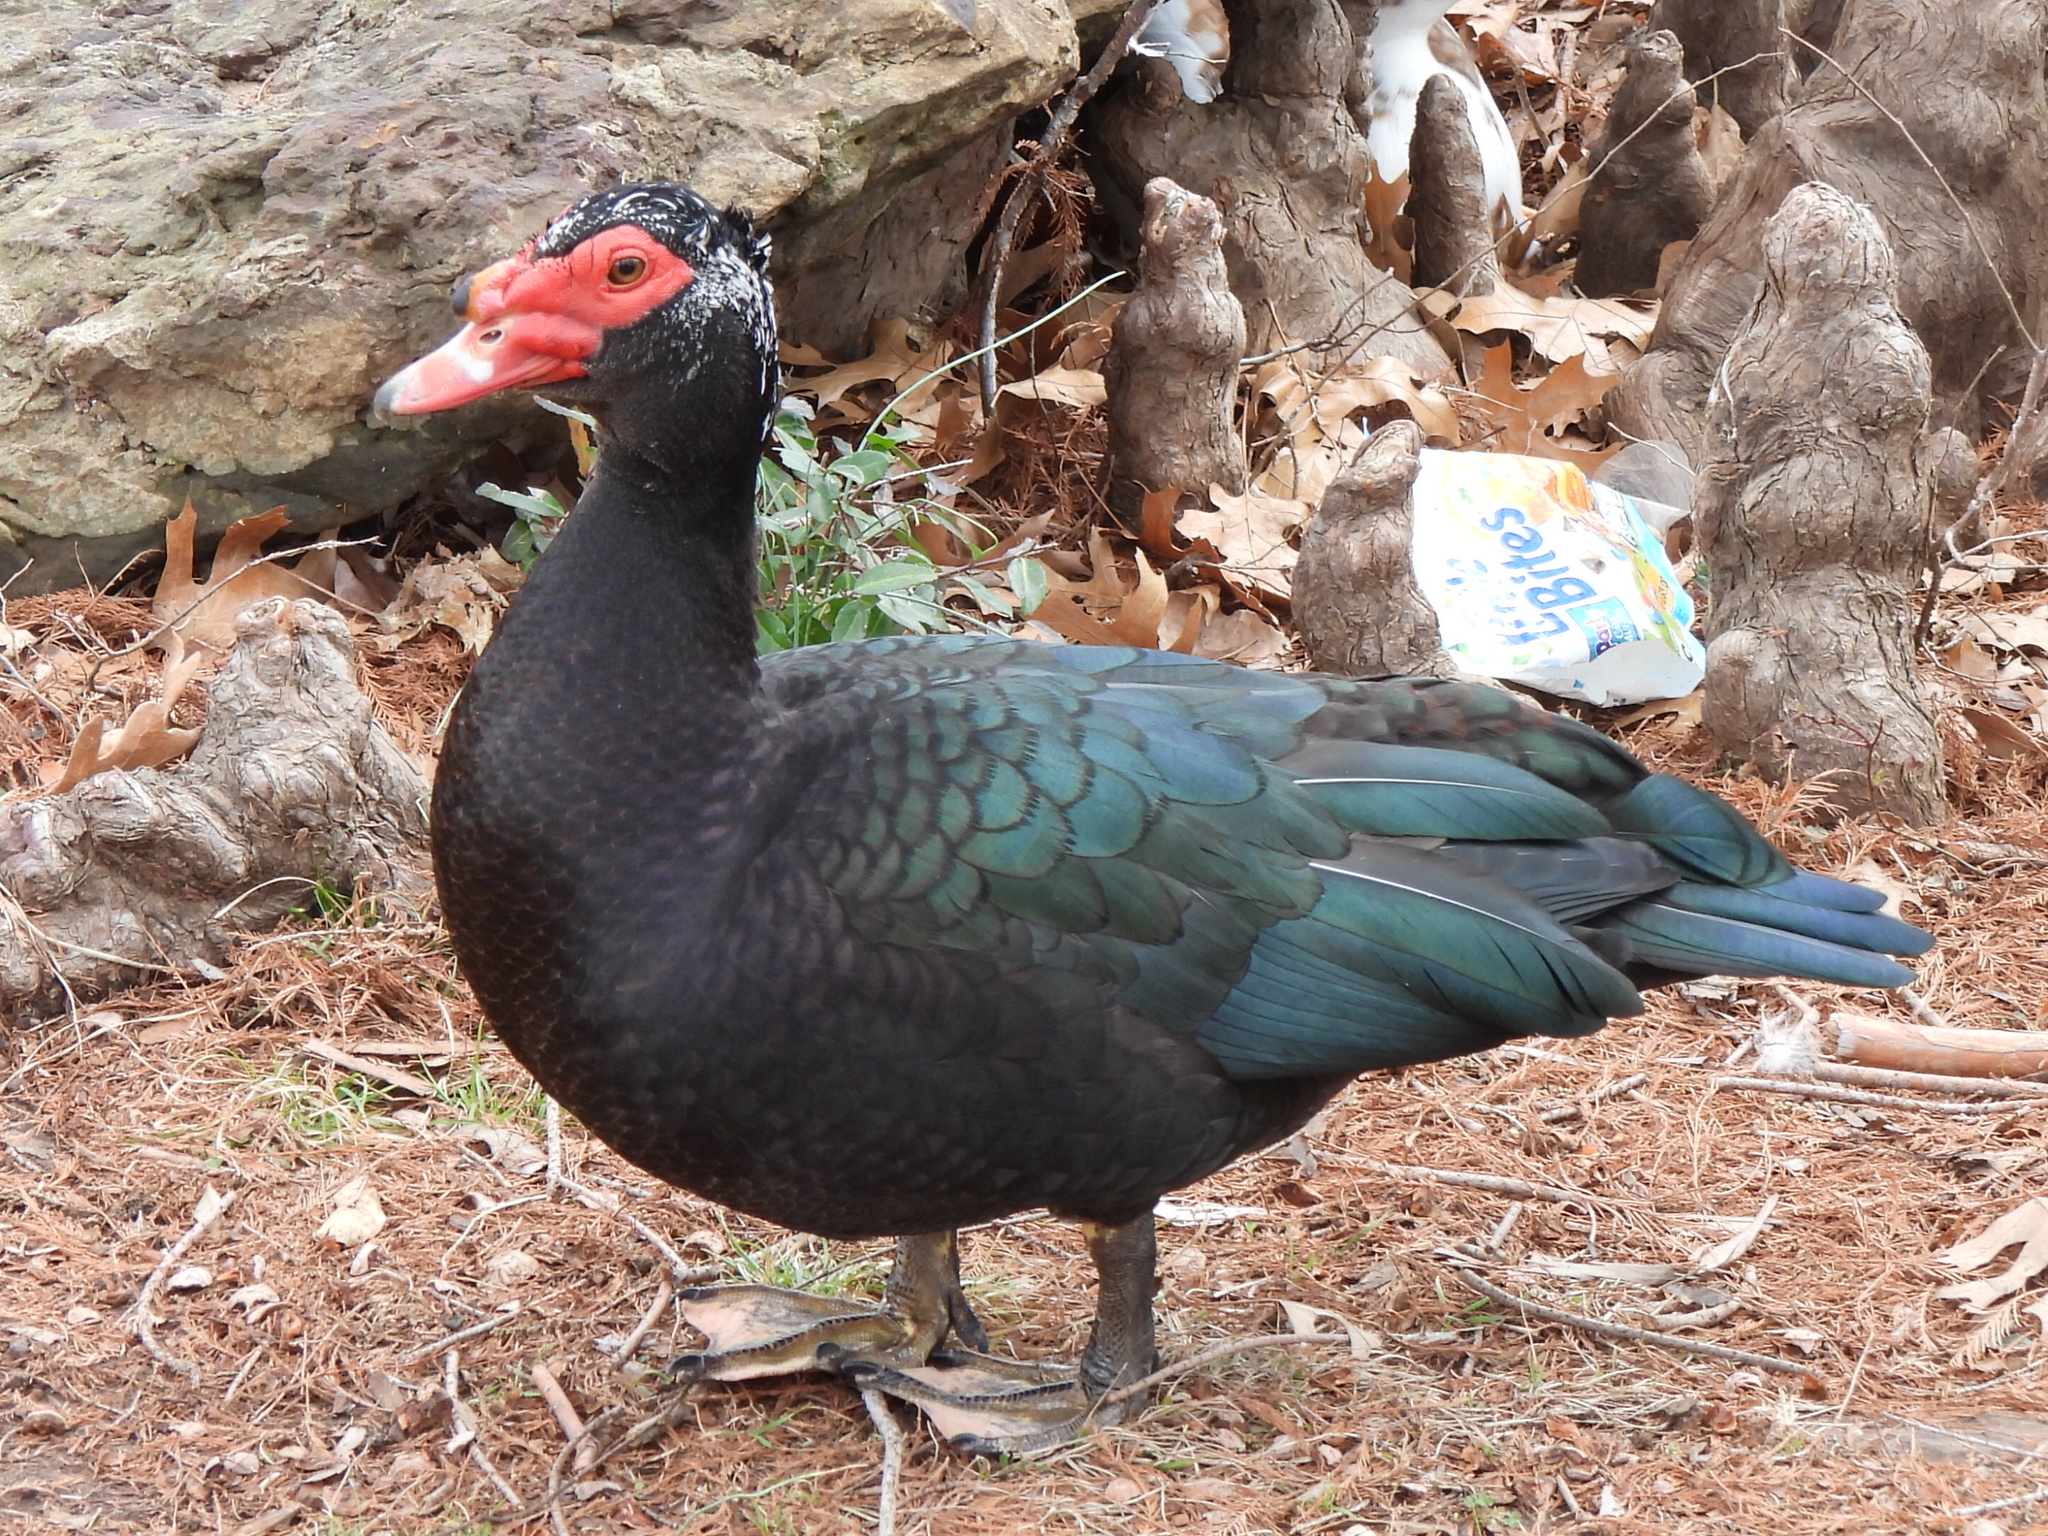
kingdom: Animalia
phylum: Chordata
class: Aves
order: Anseriformes
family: Anatidae
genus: Cairina
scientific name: Cairina moschata
